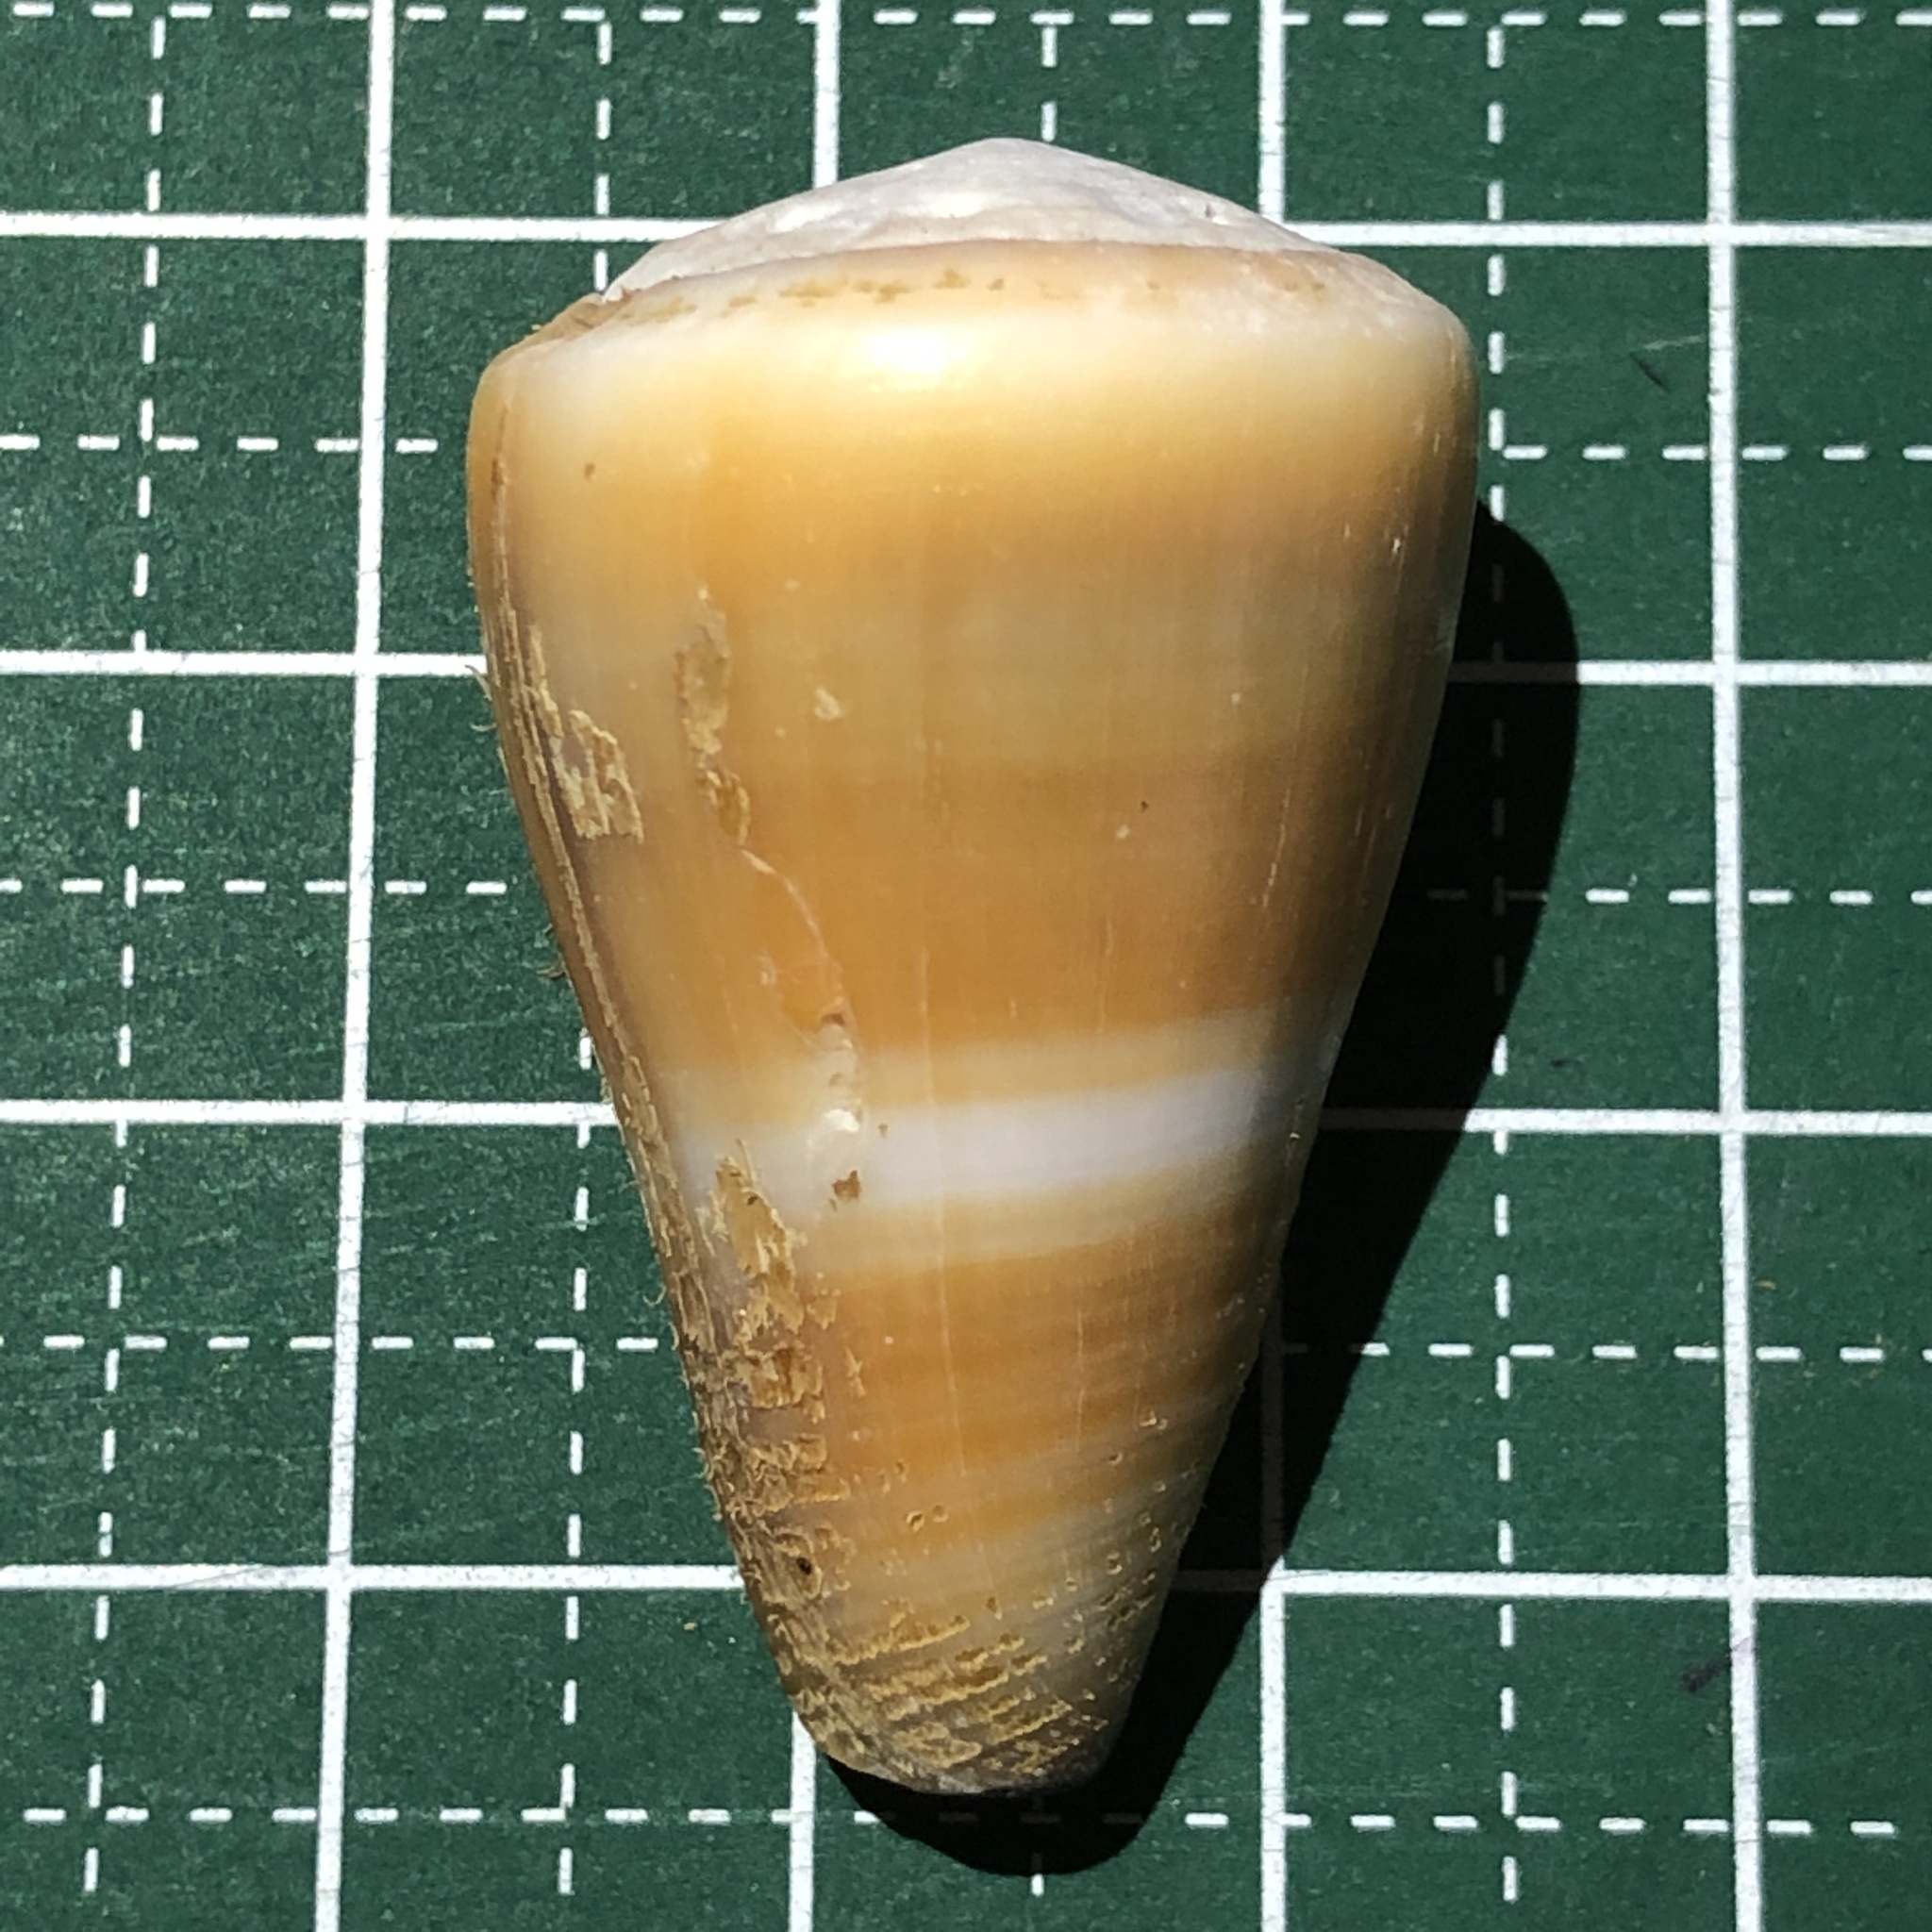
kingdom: Animalia
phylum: Mollusca
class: Gastropoda
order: Neogastropoda
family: Conidae
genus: Conus
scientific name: Conus flavidus
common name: Golden-yellow cone
